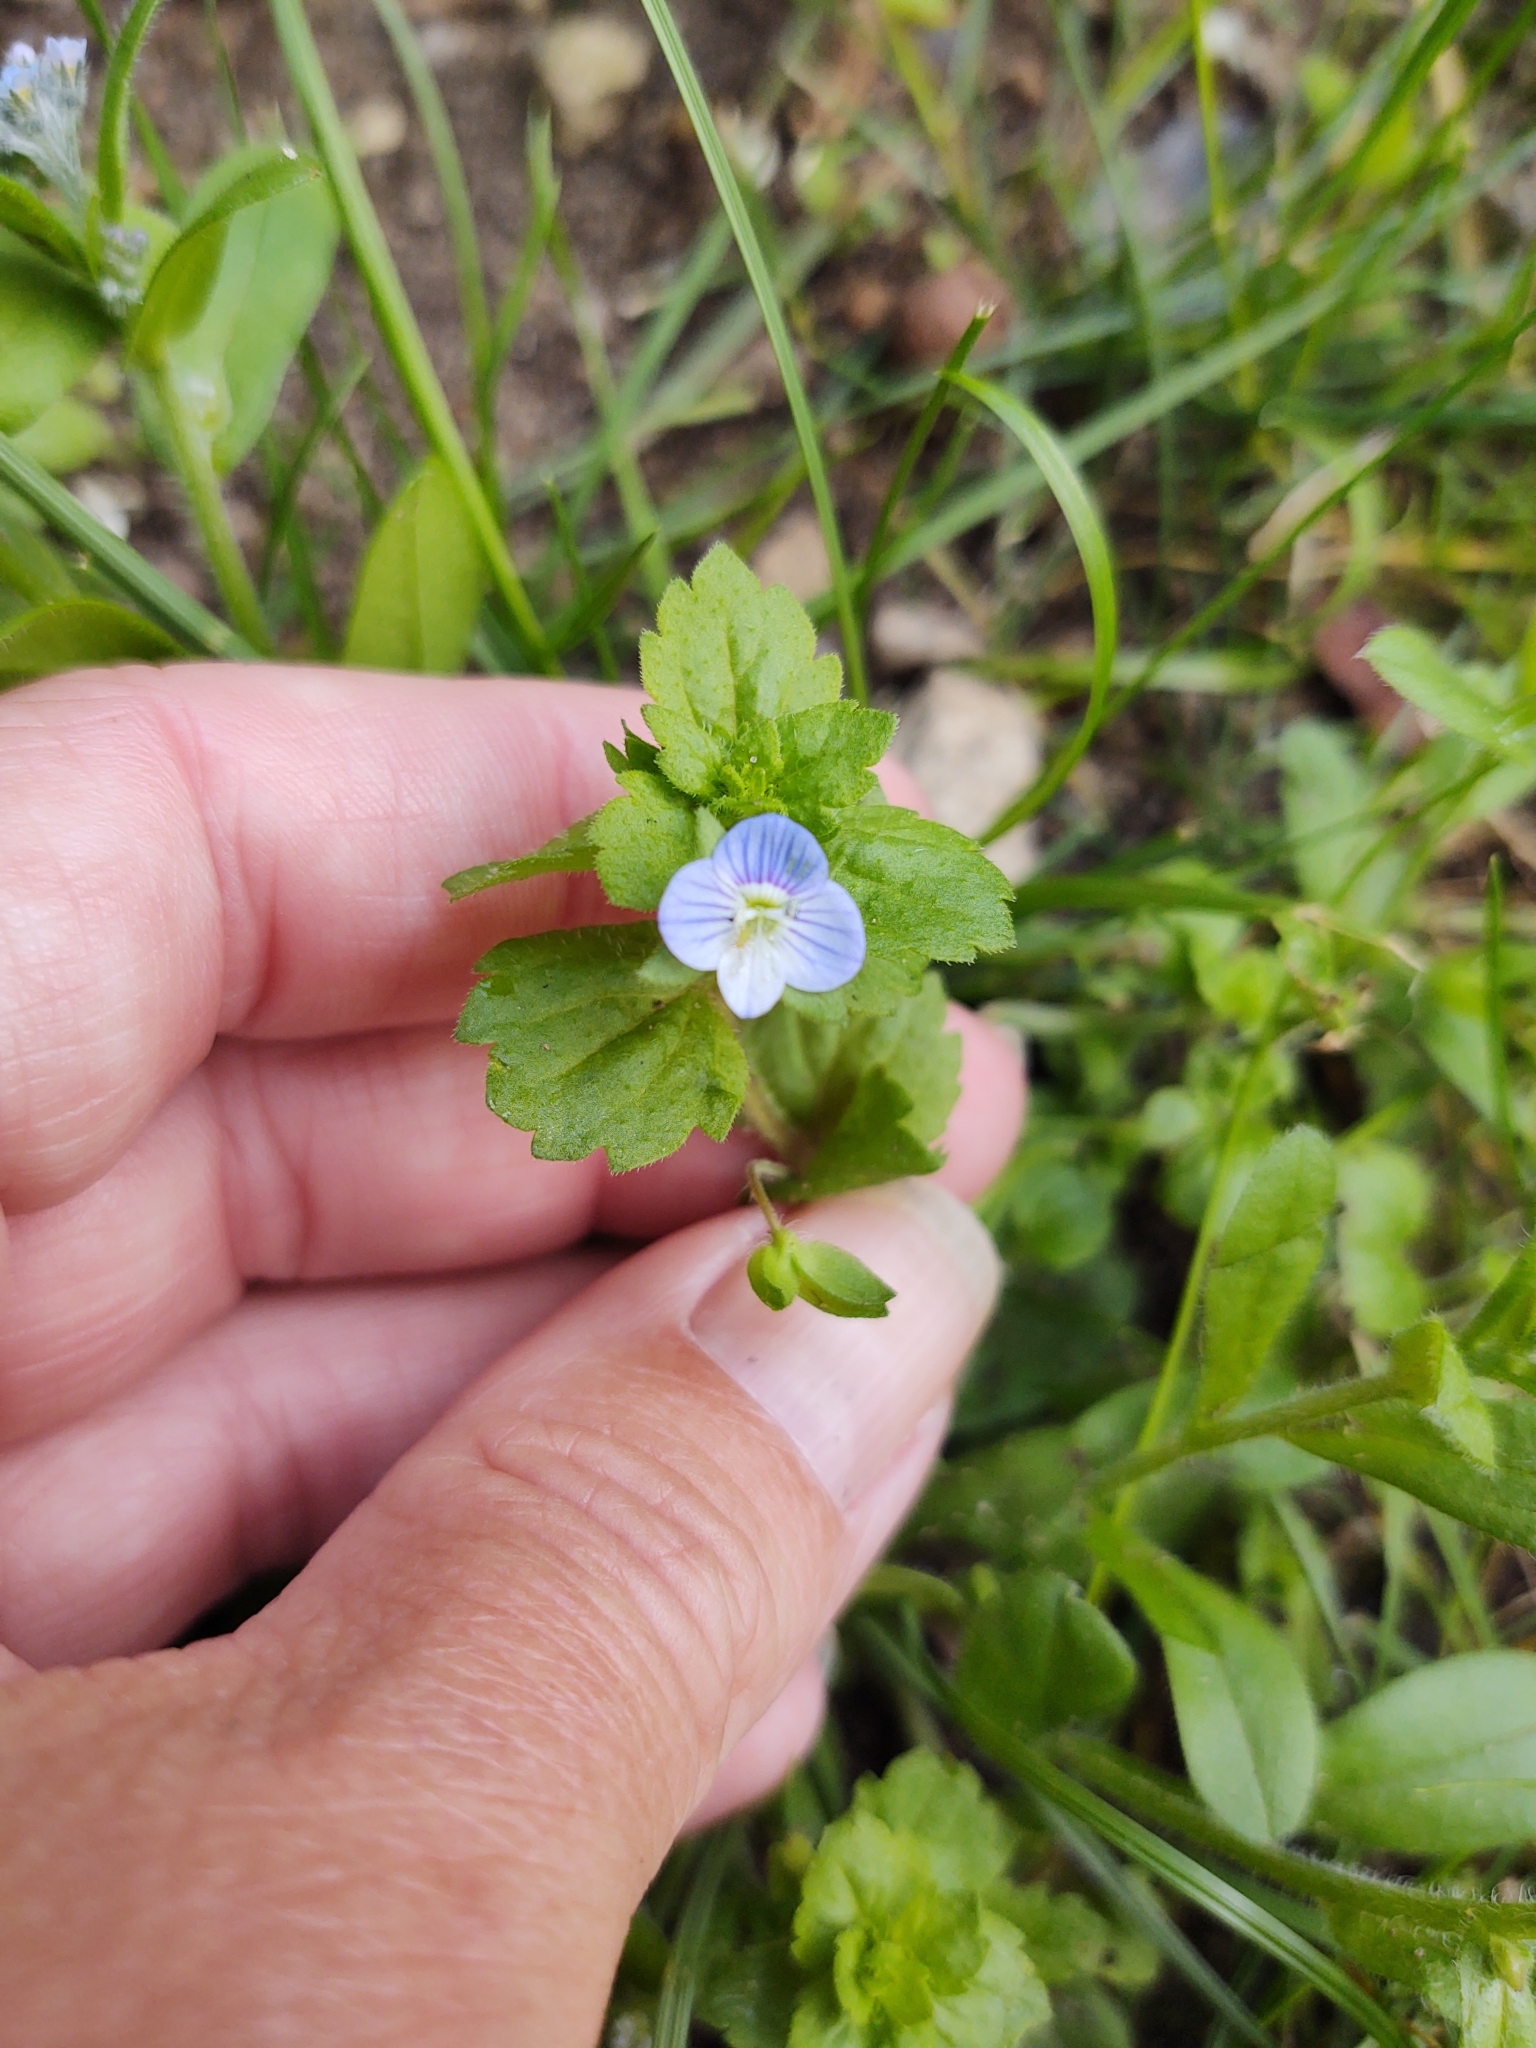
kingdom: Plantae
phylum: Tracheophyta
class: Magnoliopsida
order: Lamiales
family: Plantaginaceae
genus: Veronica
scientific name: Veronica persica
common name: Common field-speedwell
